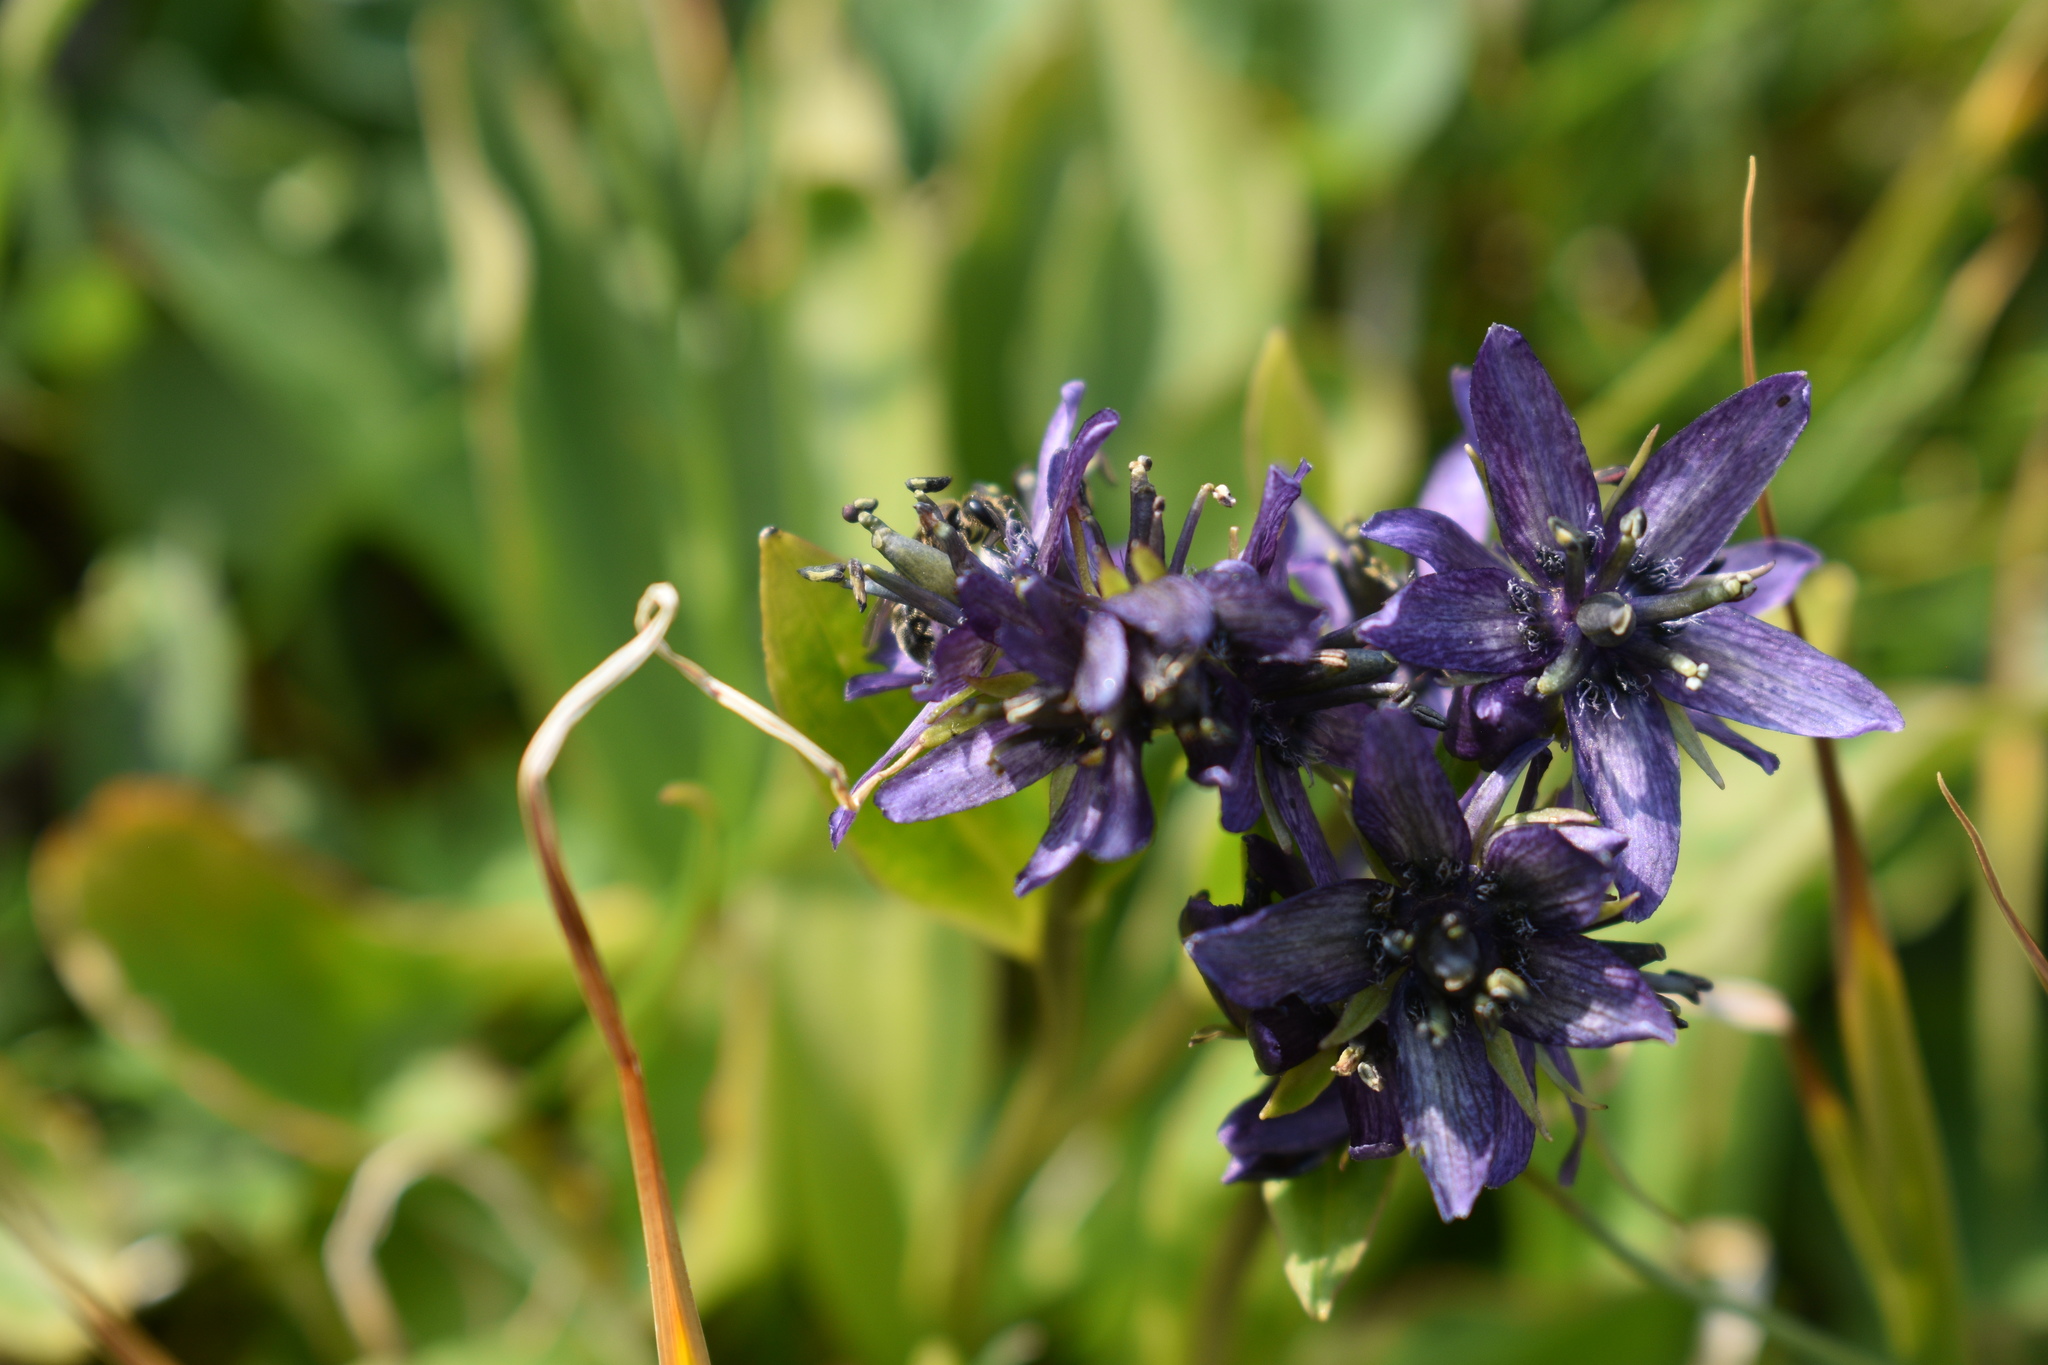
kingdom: Plantae
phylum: Tracheophyta
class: Magnoliopsida
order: Gentianales
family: Gentianaceae
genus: Swertia
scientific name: Swertia perennis
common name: Alpine bog swertia
